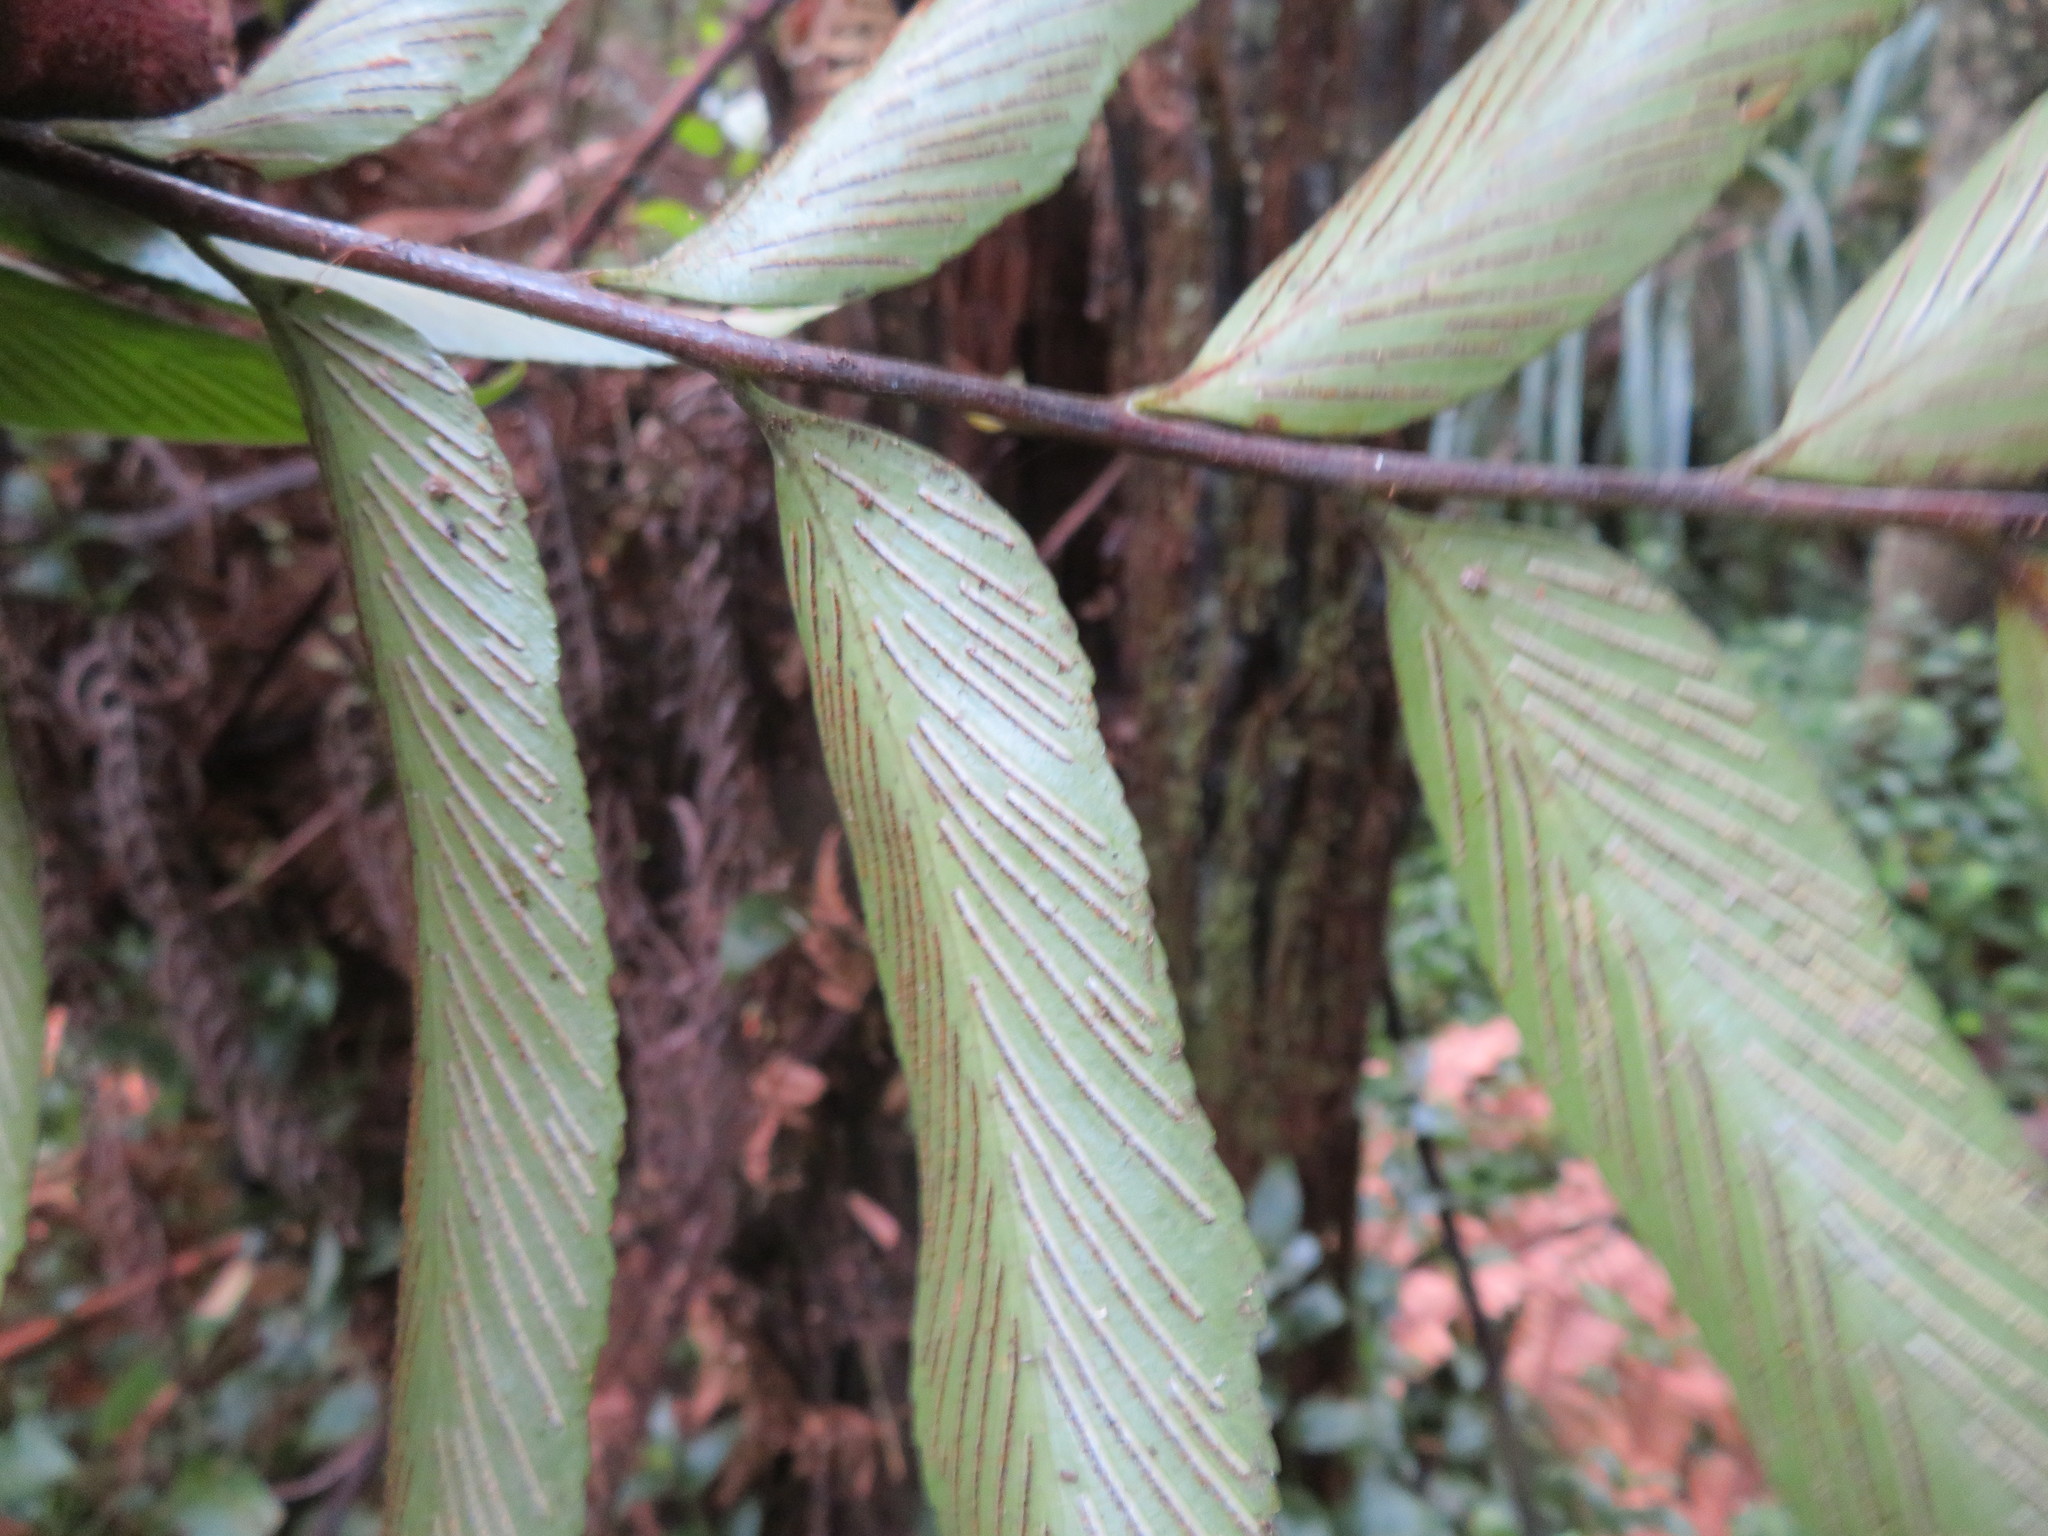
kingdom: Plantae
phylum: Tracheophyta
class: Polypodiopsida
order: Polypodiales
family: Aspleniaceae
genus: Asplenium
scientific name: Asplenium oblongifolium
